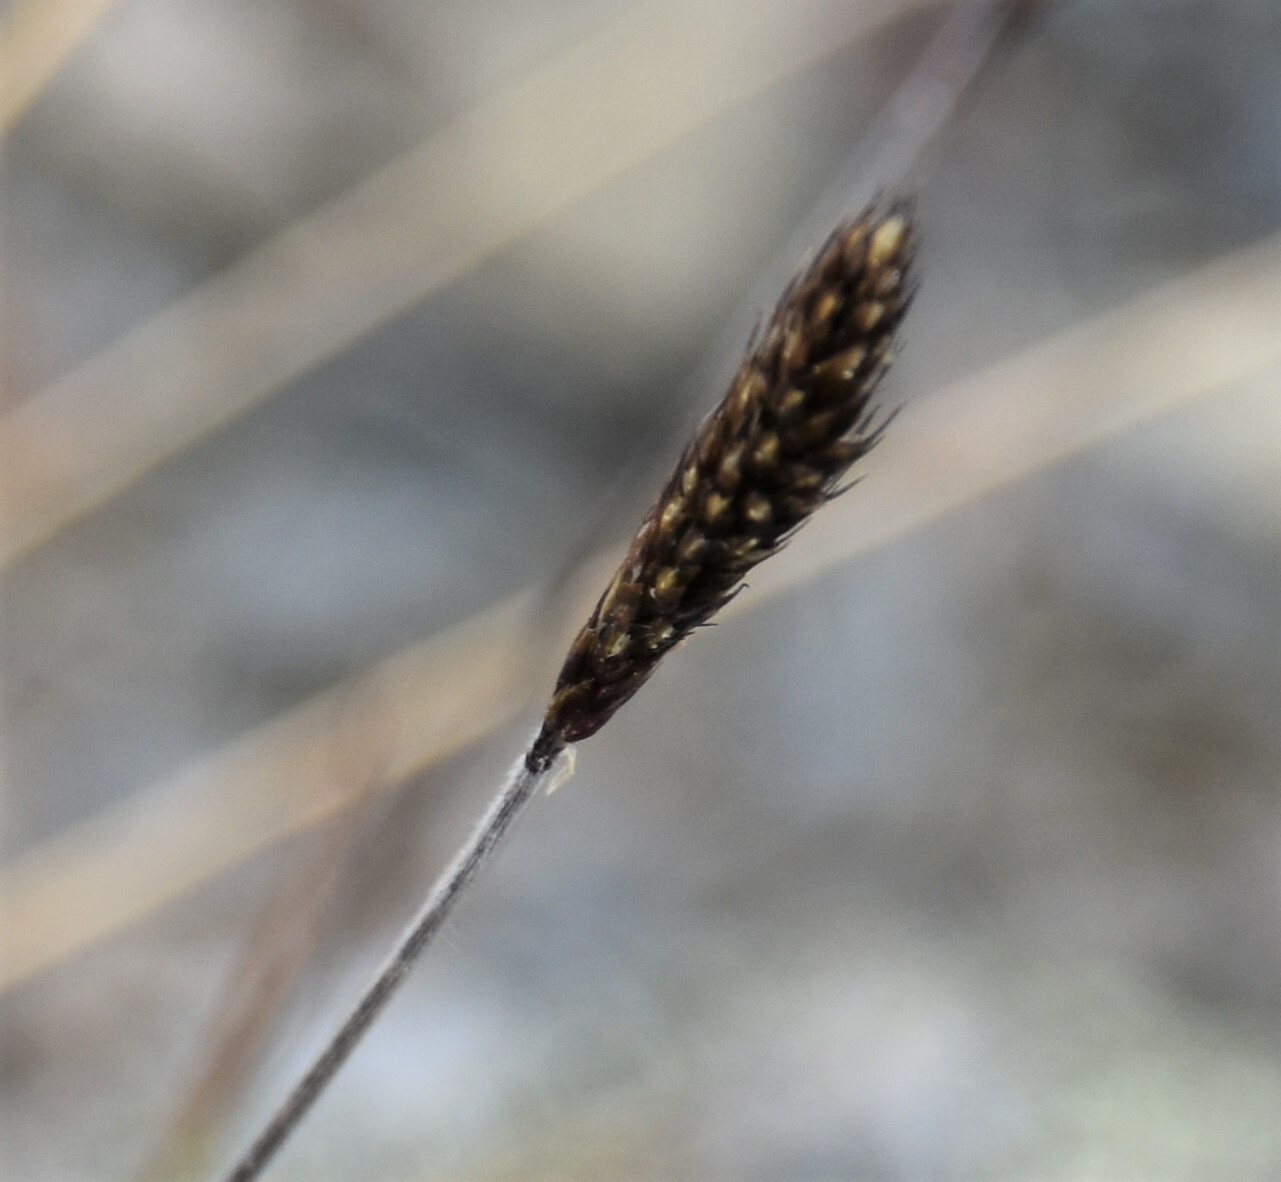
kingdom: Plantae
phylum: Tracheophyta
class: Liliopsida
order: Poales
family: Poaceae
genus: Koeleria
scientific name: Koeleria spicata
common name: Mountain trisetum
